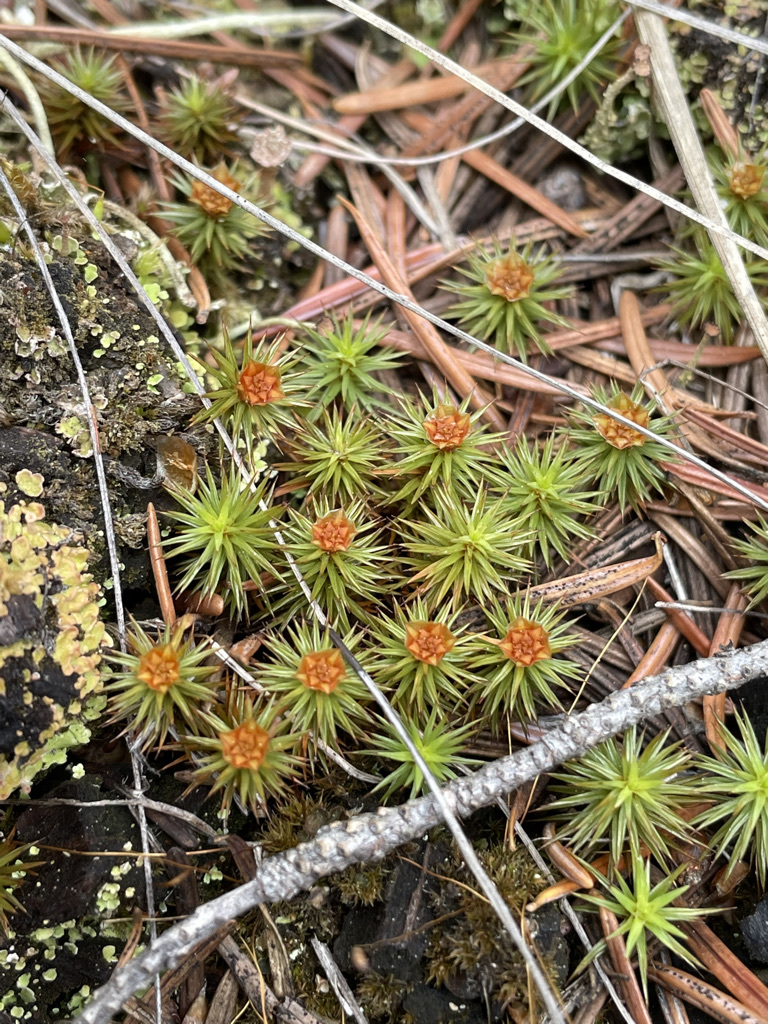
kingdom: Plantae
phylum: Bryophyta
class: Polytrichopsida
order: Polytrichales
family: Polytrichaceae
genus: Polytrichum
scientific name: Polytrichum juniperinum
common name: Juniper haircap moss
